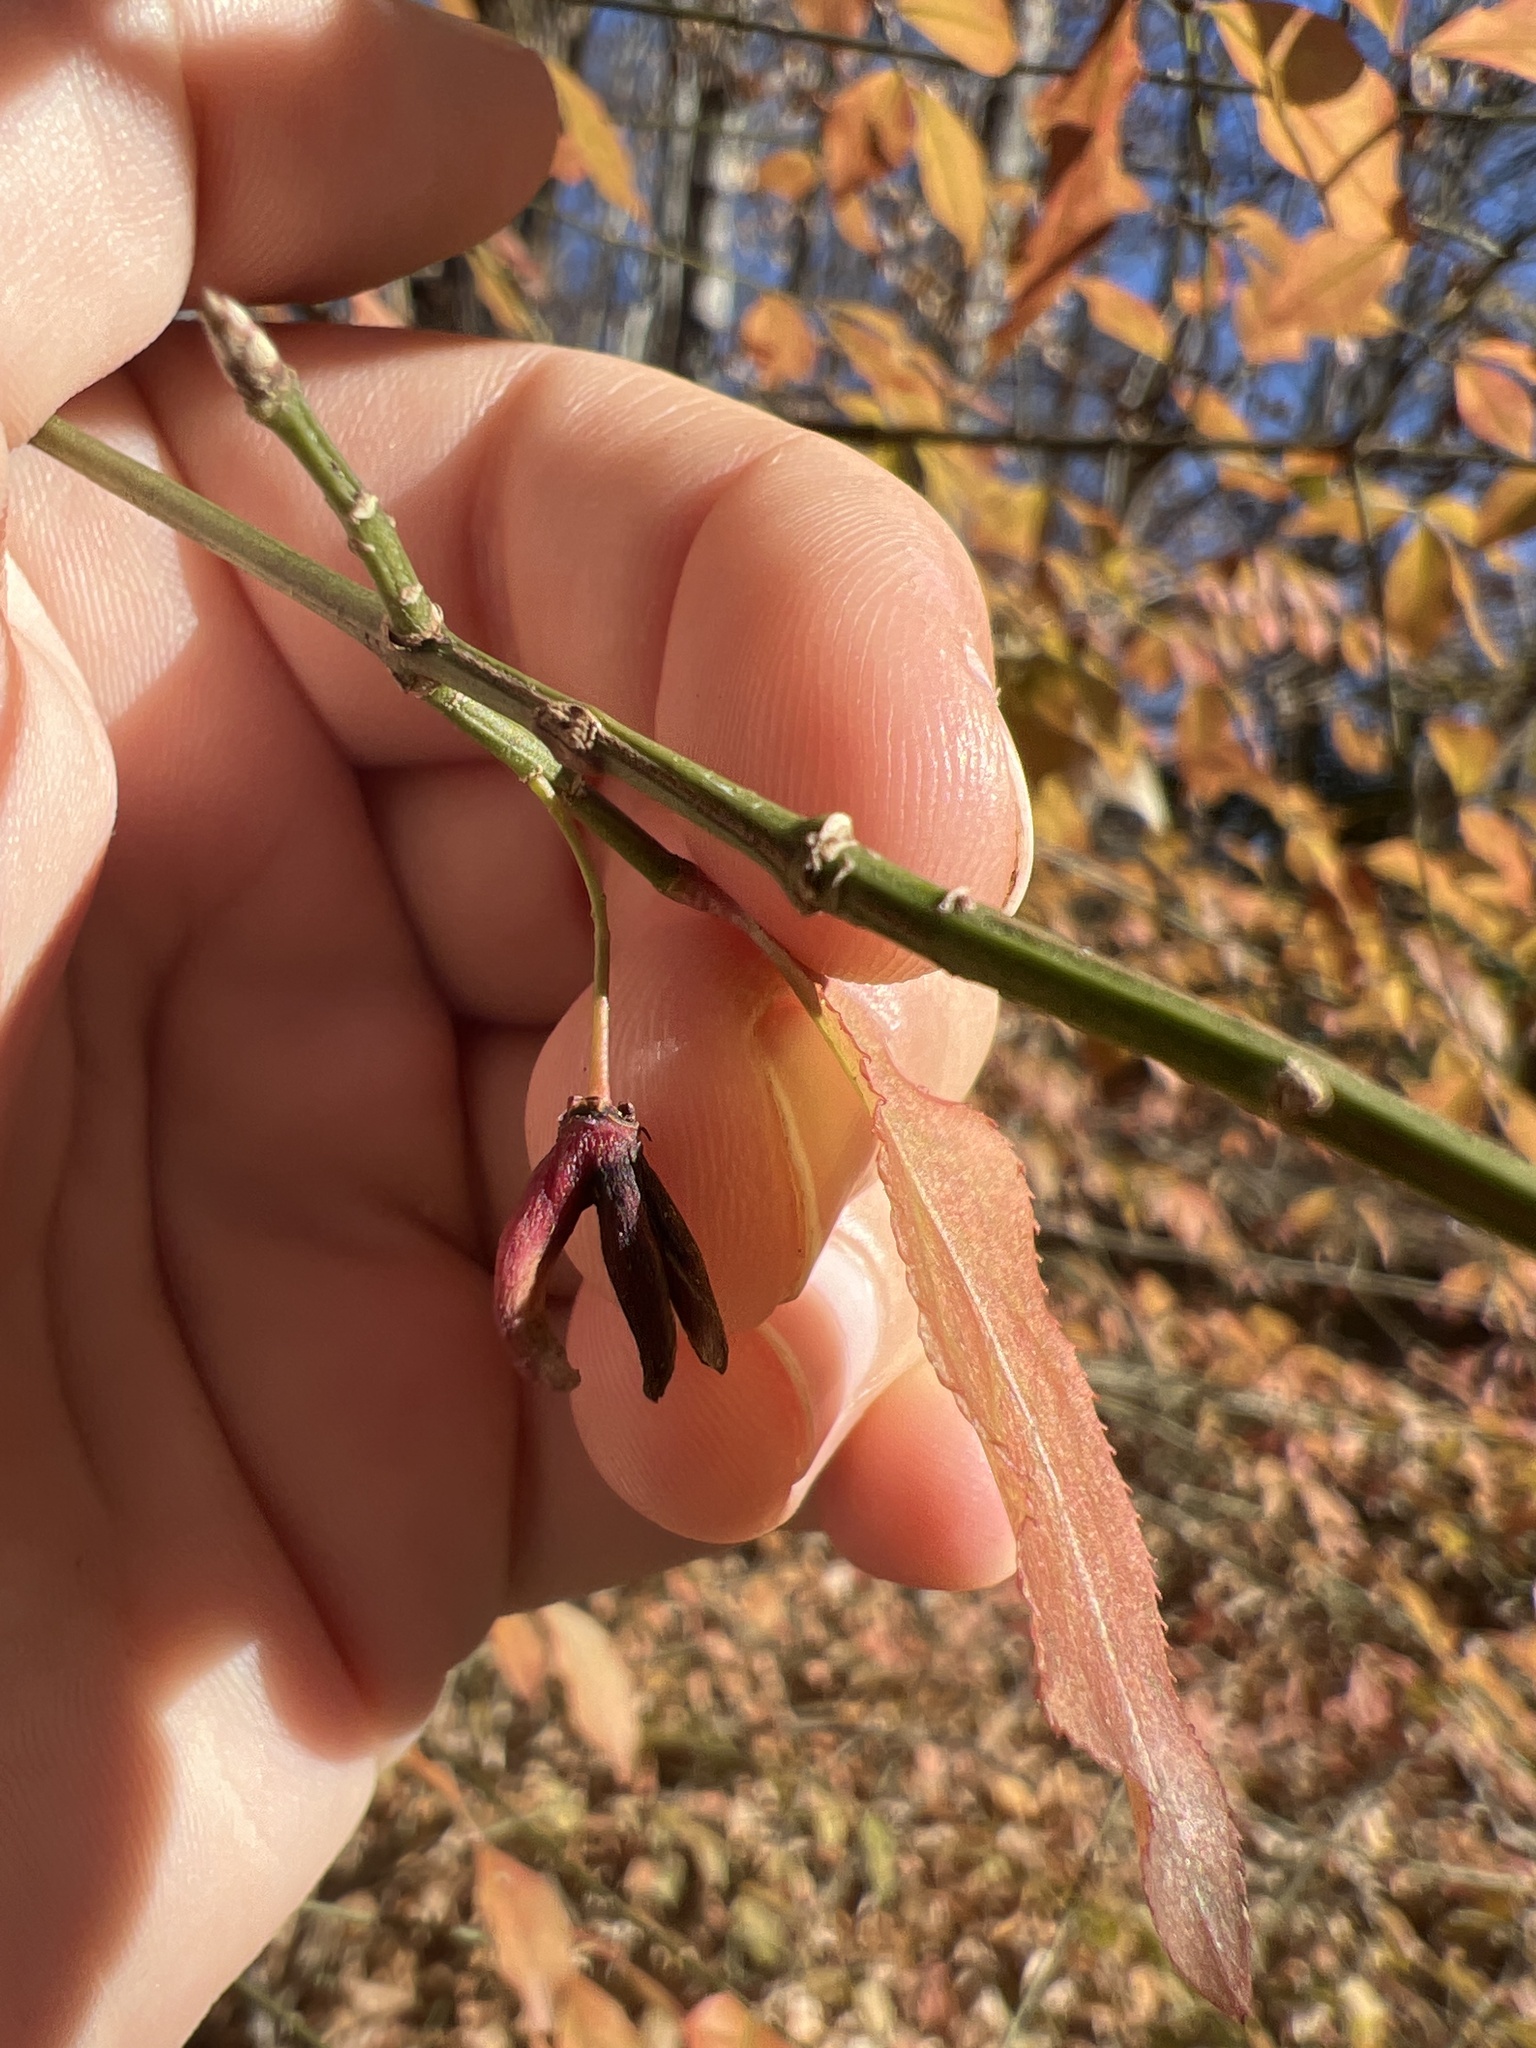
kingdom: Plantae
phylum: Tracheophyta
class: Magnoliopsida
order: Celastrales
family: Celastraceae
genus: Euonymus
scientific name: Euonymus alatus
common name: Winged euonymus
